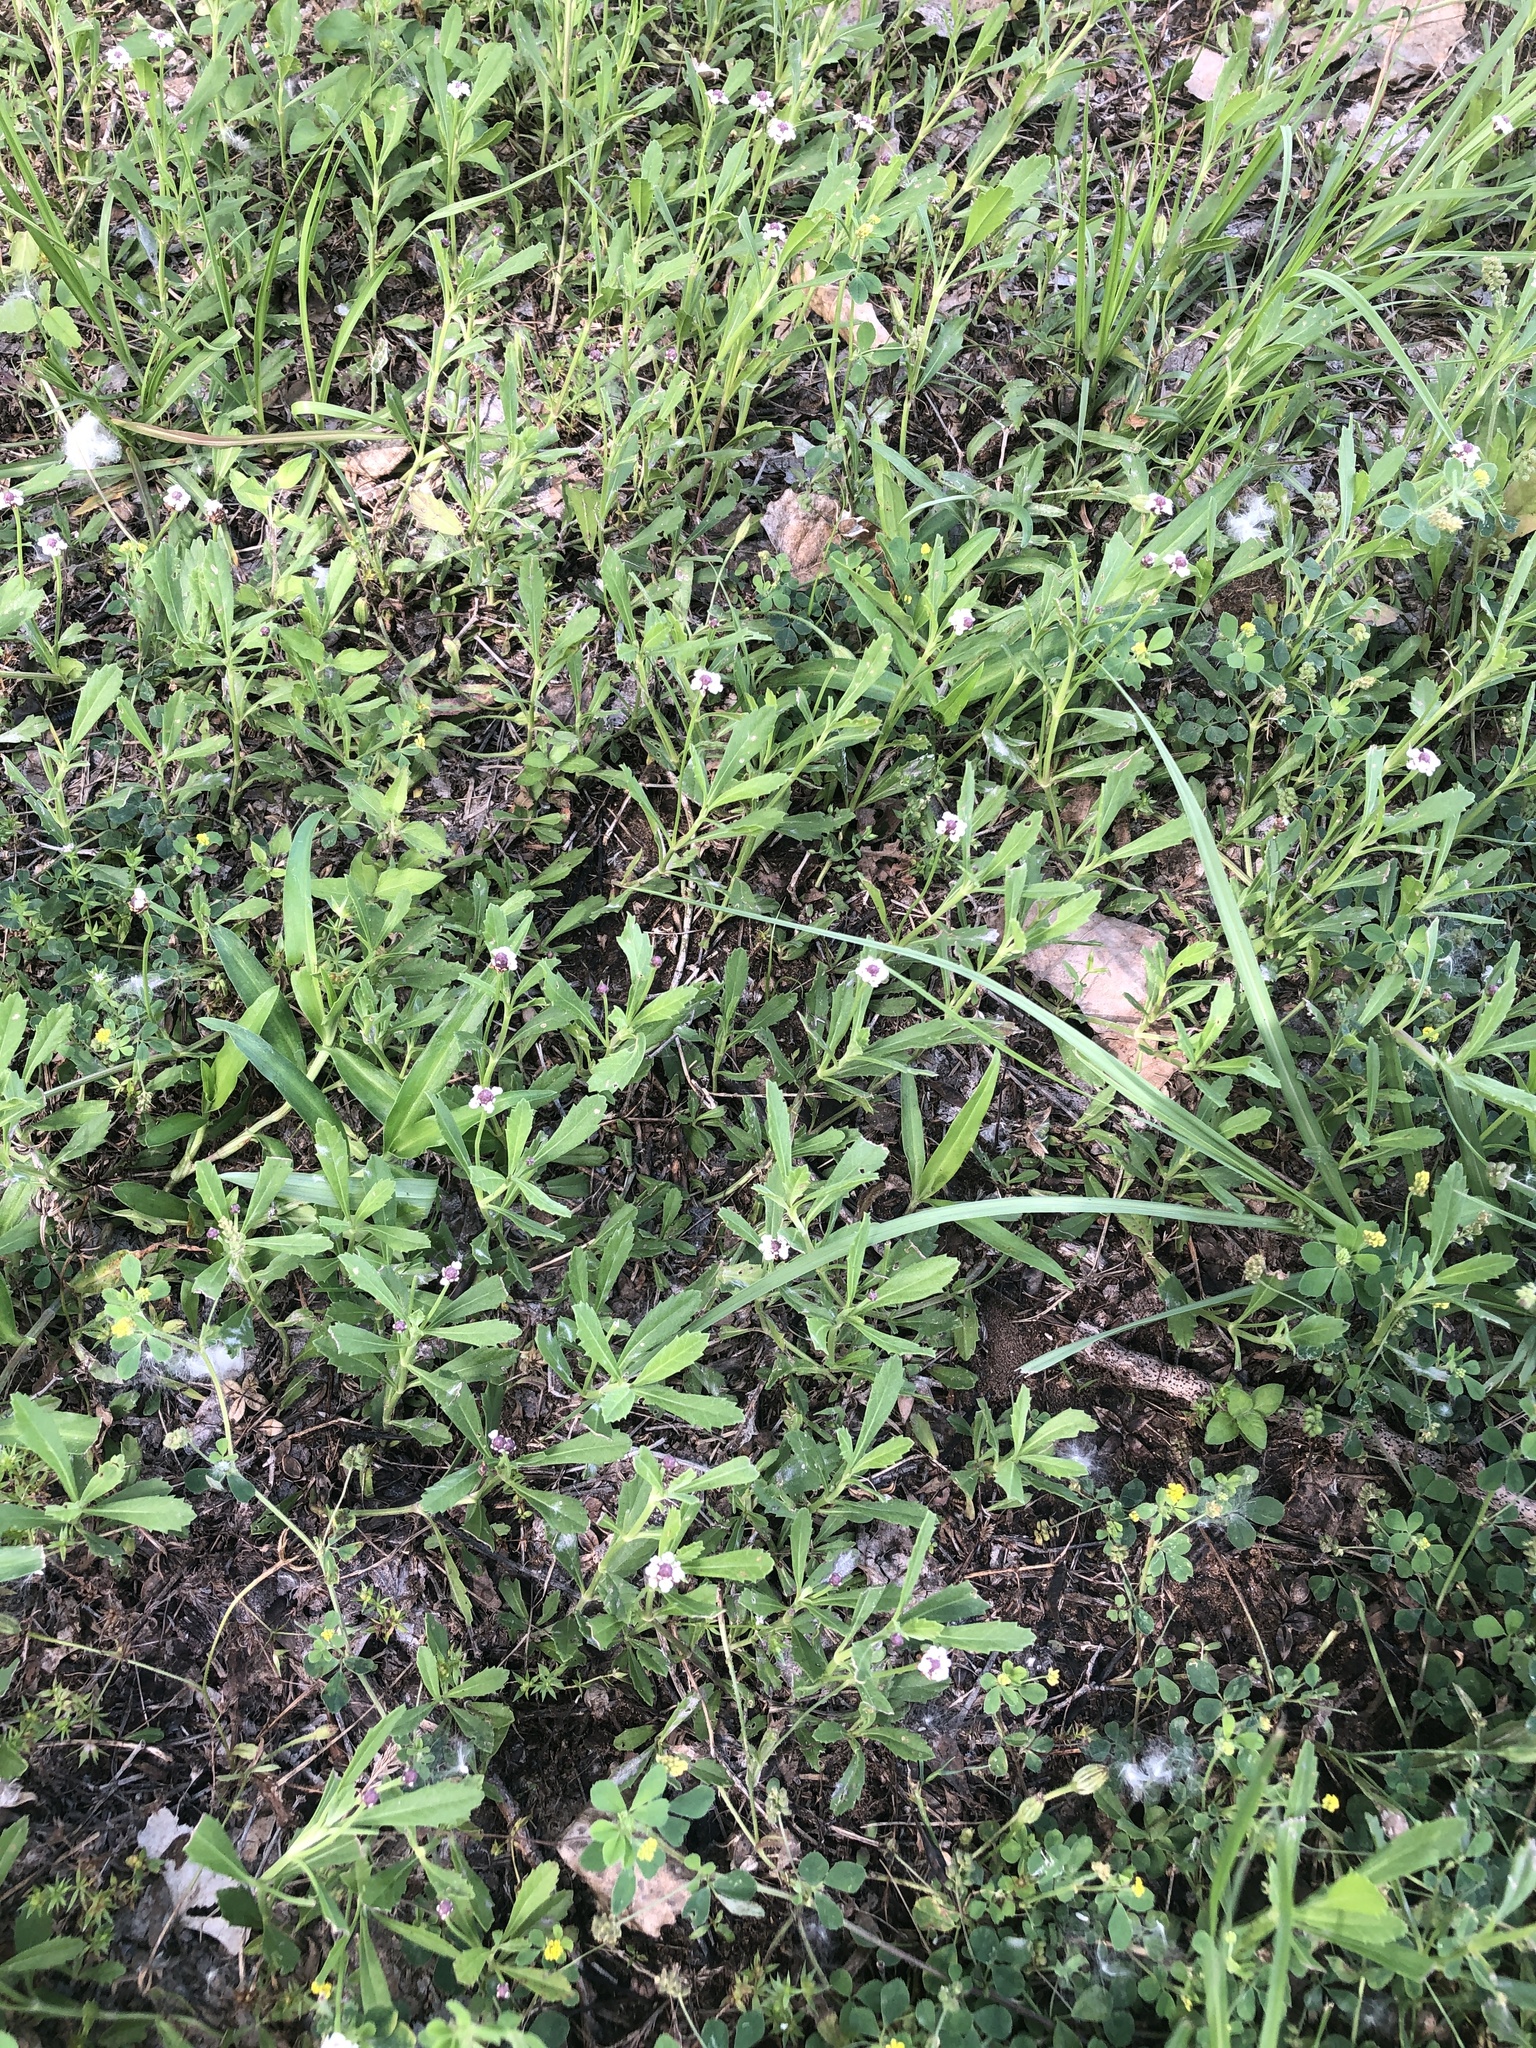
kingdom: Plantae
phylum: Tracheophyta
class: Magnoliopsida
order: Lamiales
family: Verbenaceae
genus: Phyla
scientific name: Phyla nodiflora
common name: Frogfruit
